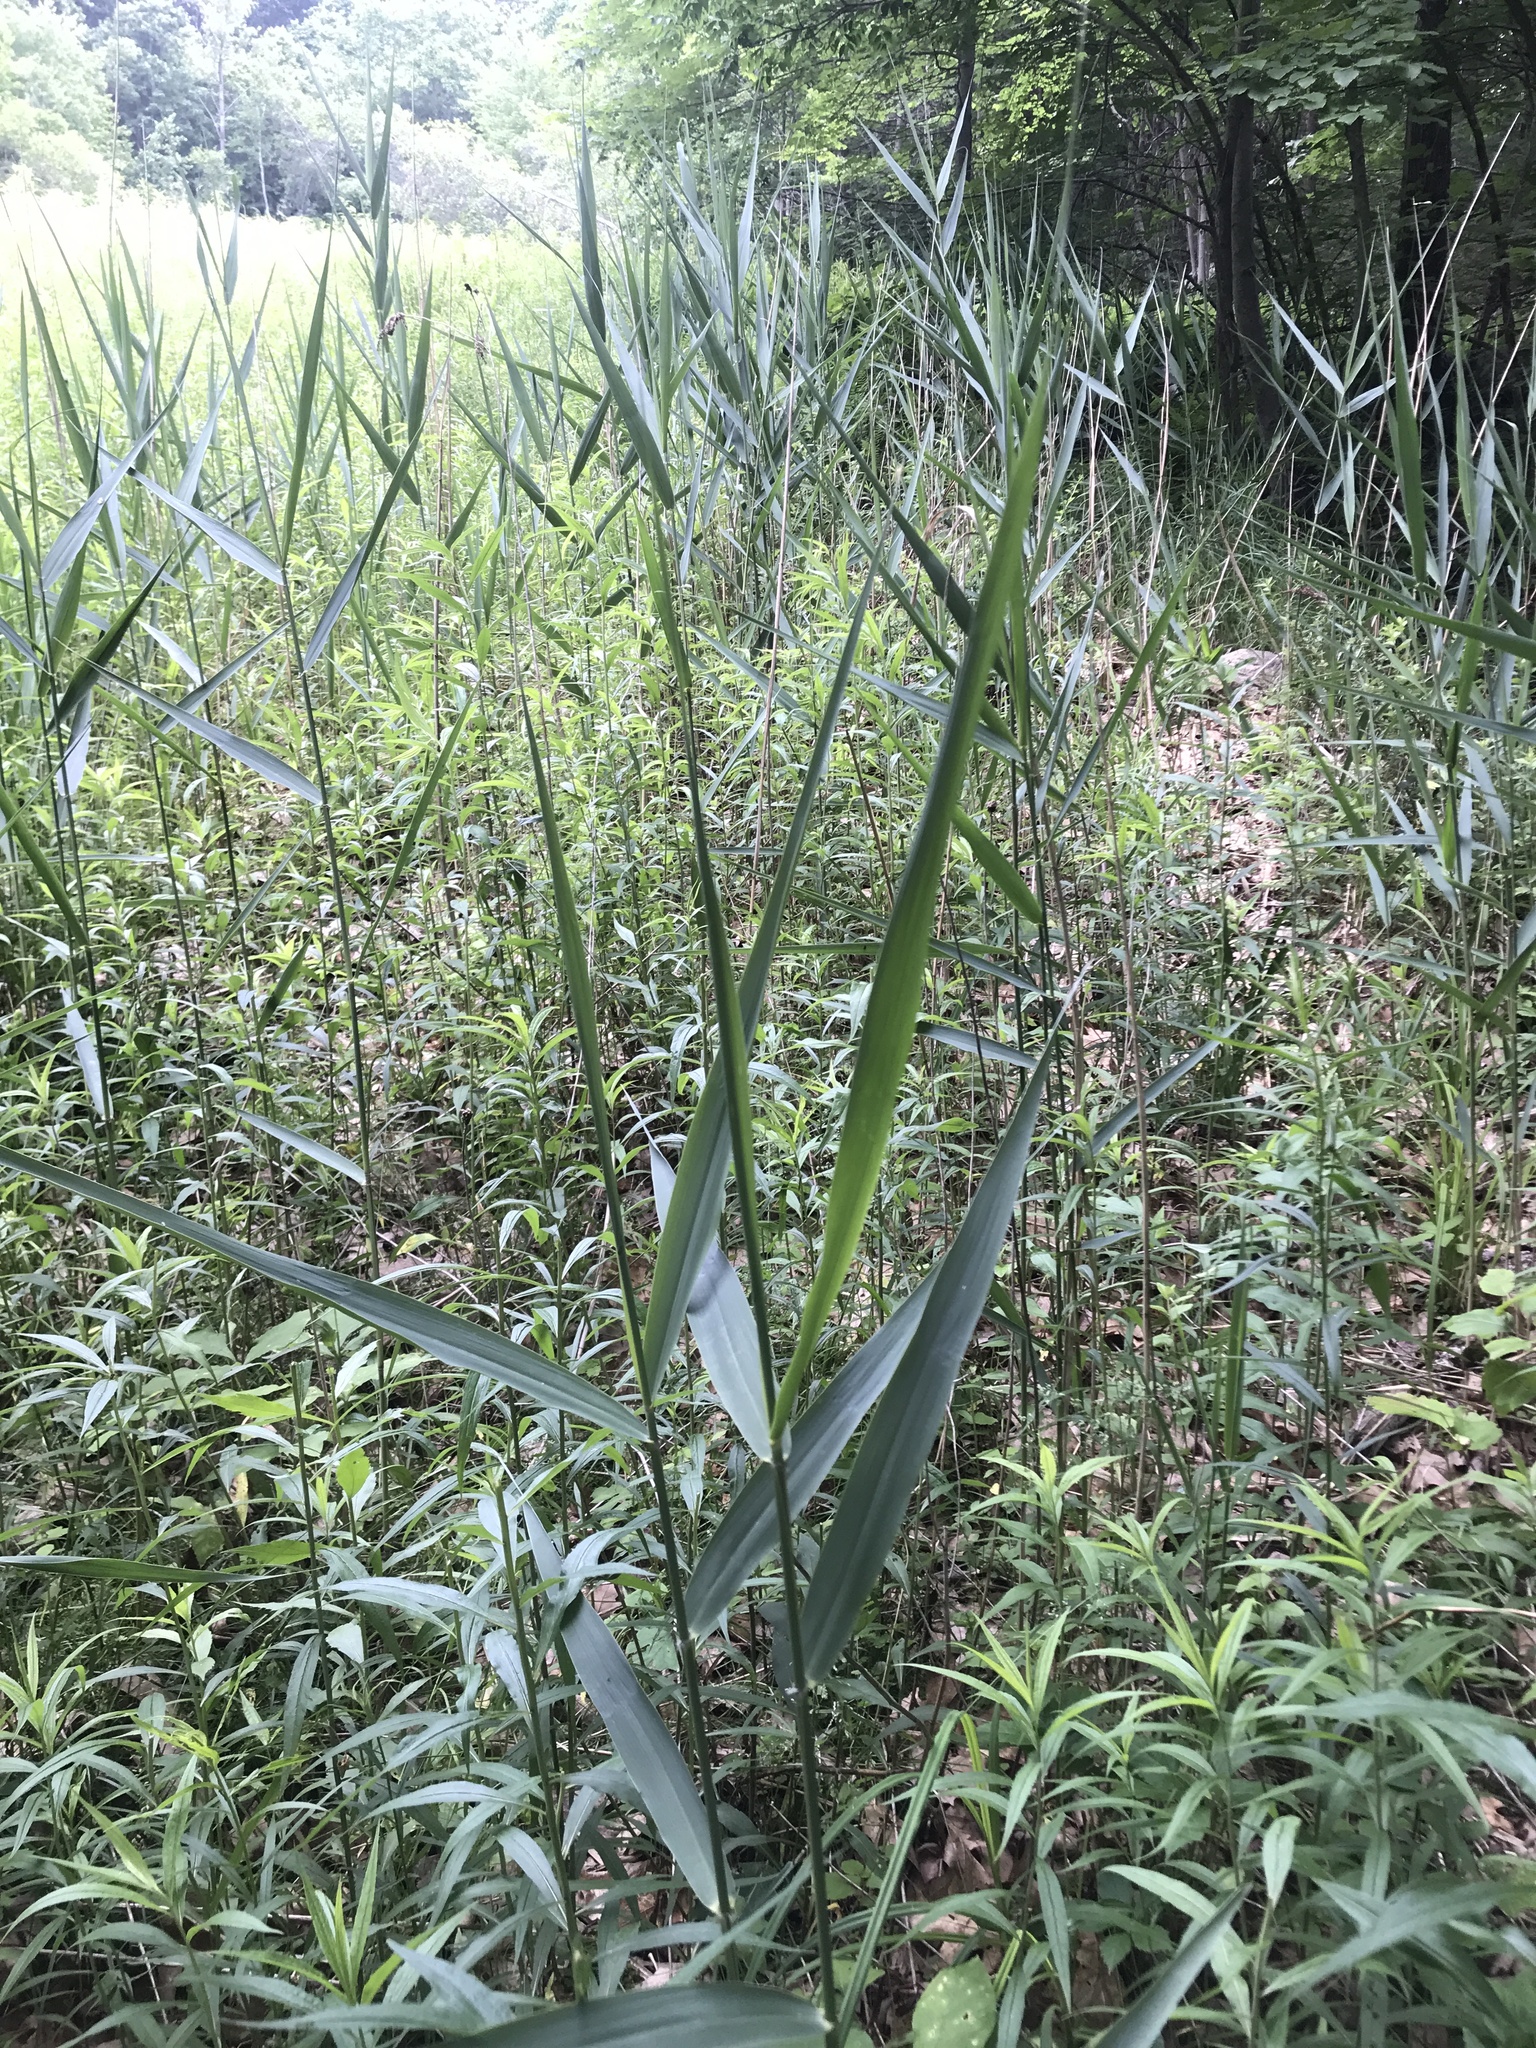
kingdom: Plantae
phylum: Tracheophyta
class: Liliopsida
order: Poales
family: Poaceae
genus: Phragmites
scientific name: Phragmites australis
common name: Common reed
